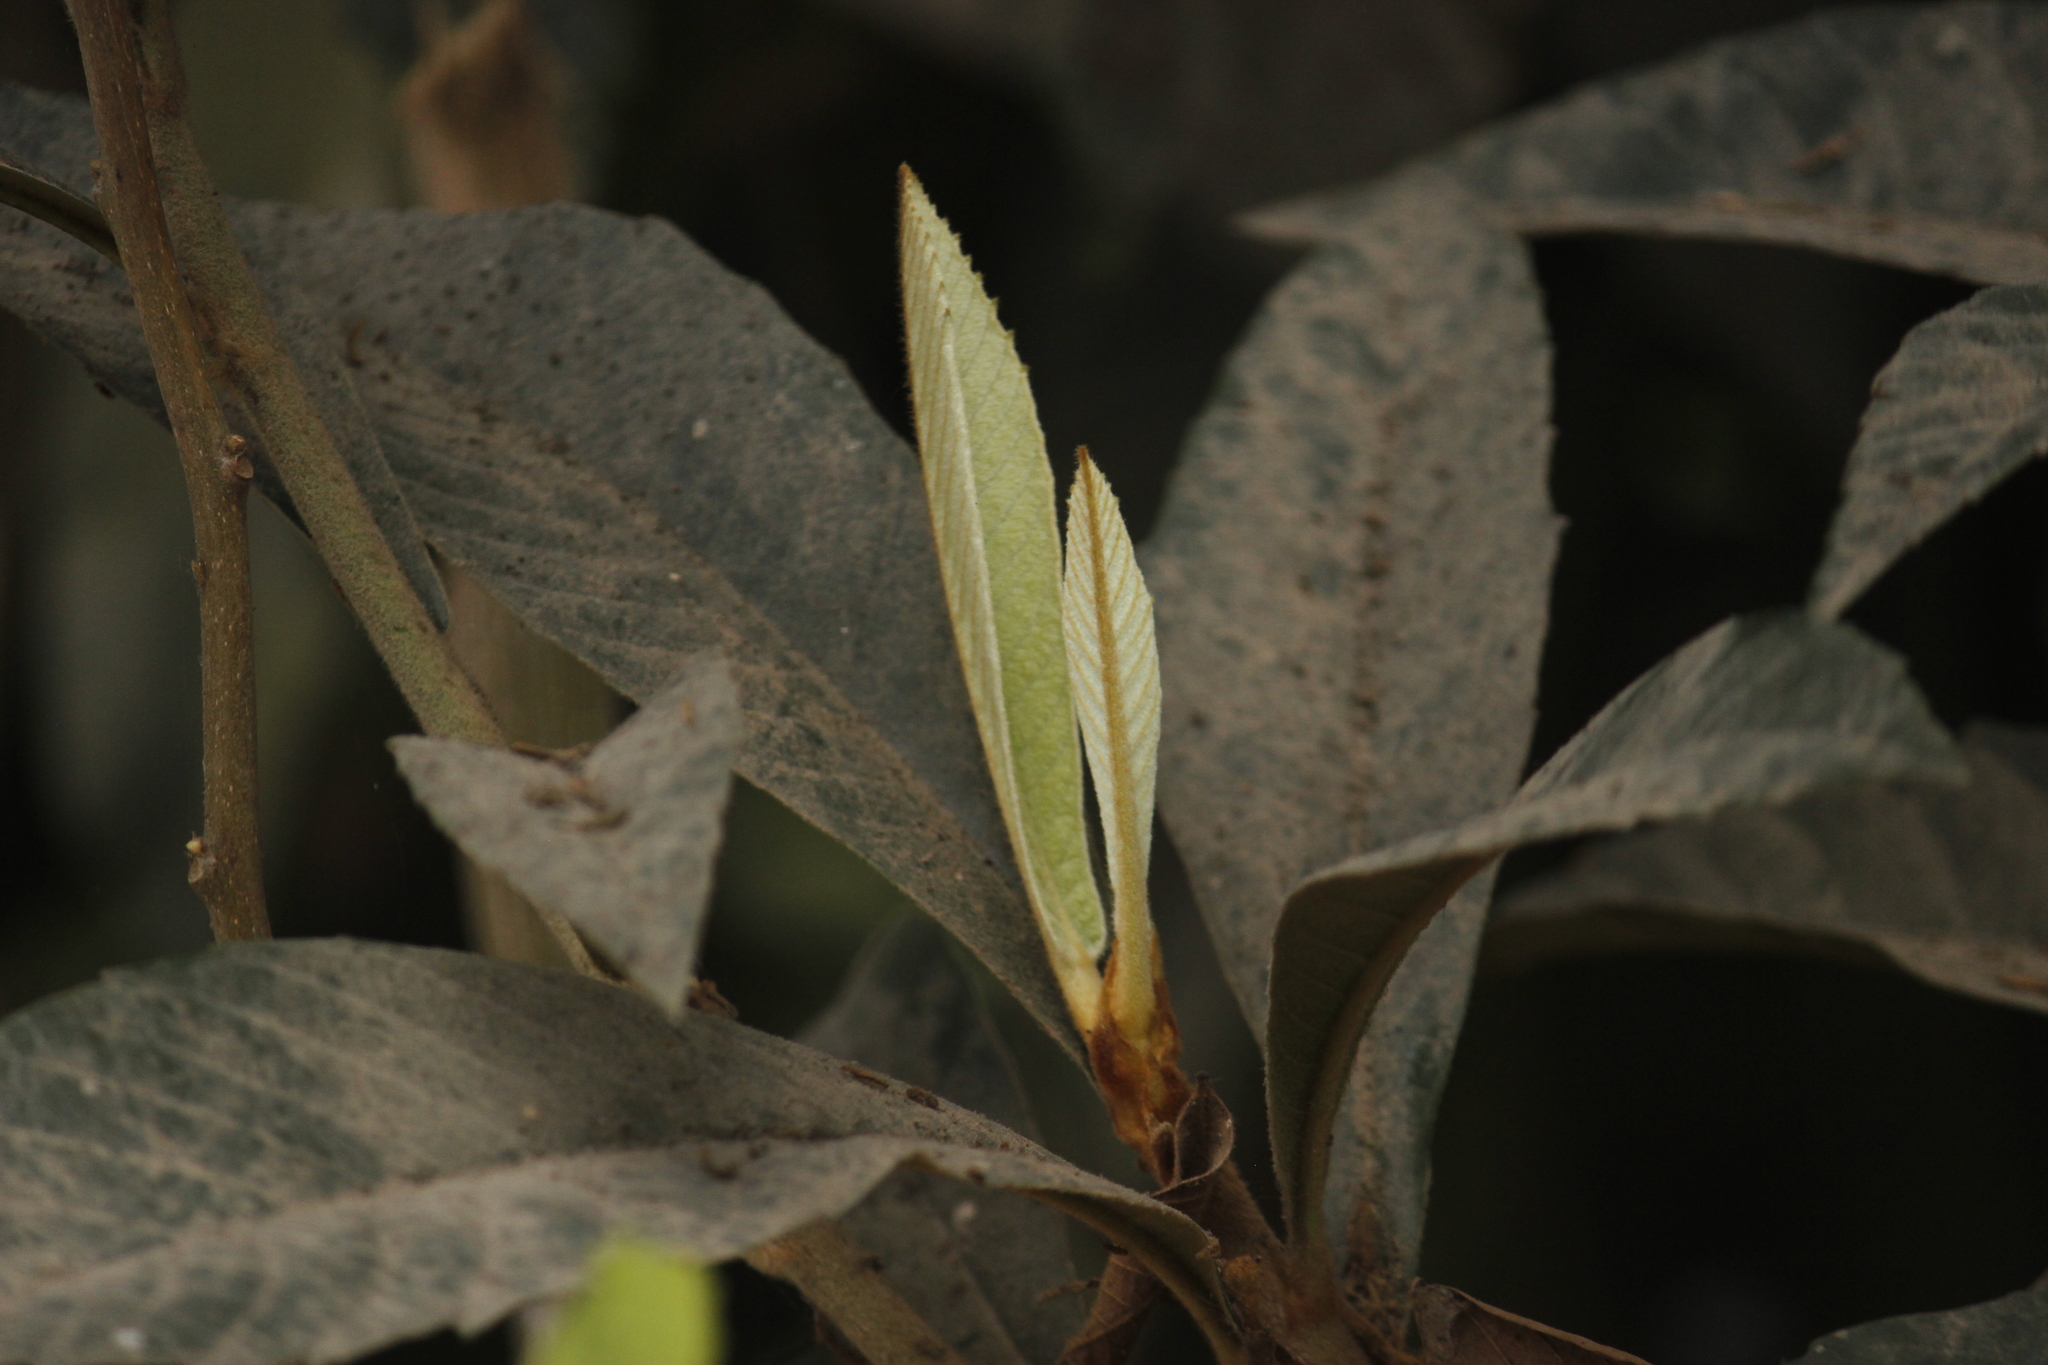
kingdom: Plantae
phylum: Tracheophyta
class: Magnoliopsida
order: Rosales
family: Rosaceae
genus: Rhaphiolepis
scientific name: Rhaphiolepis bibas
